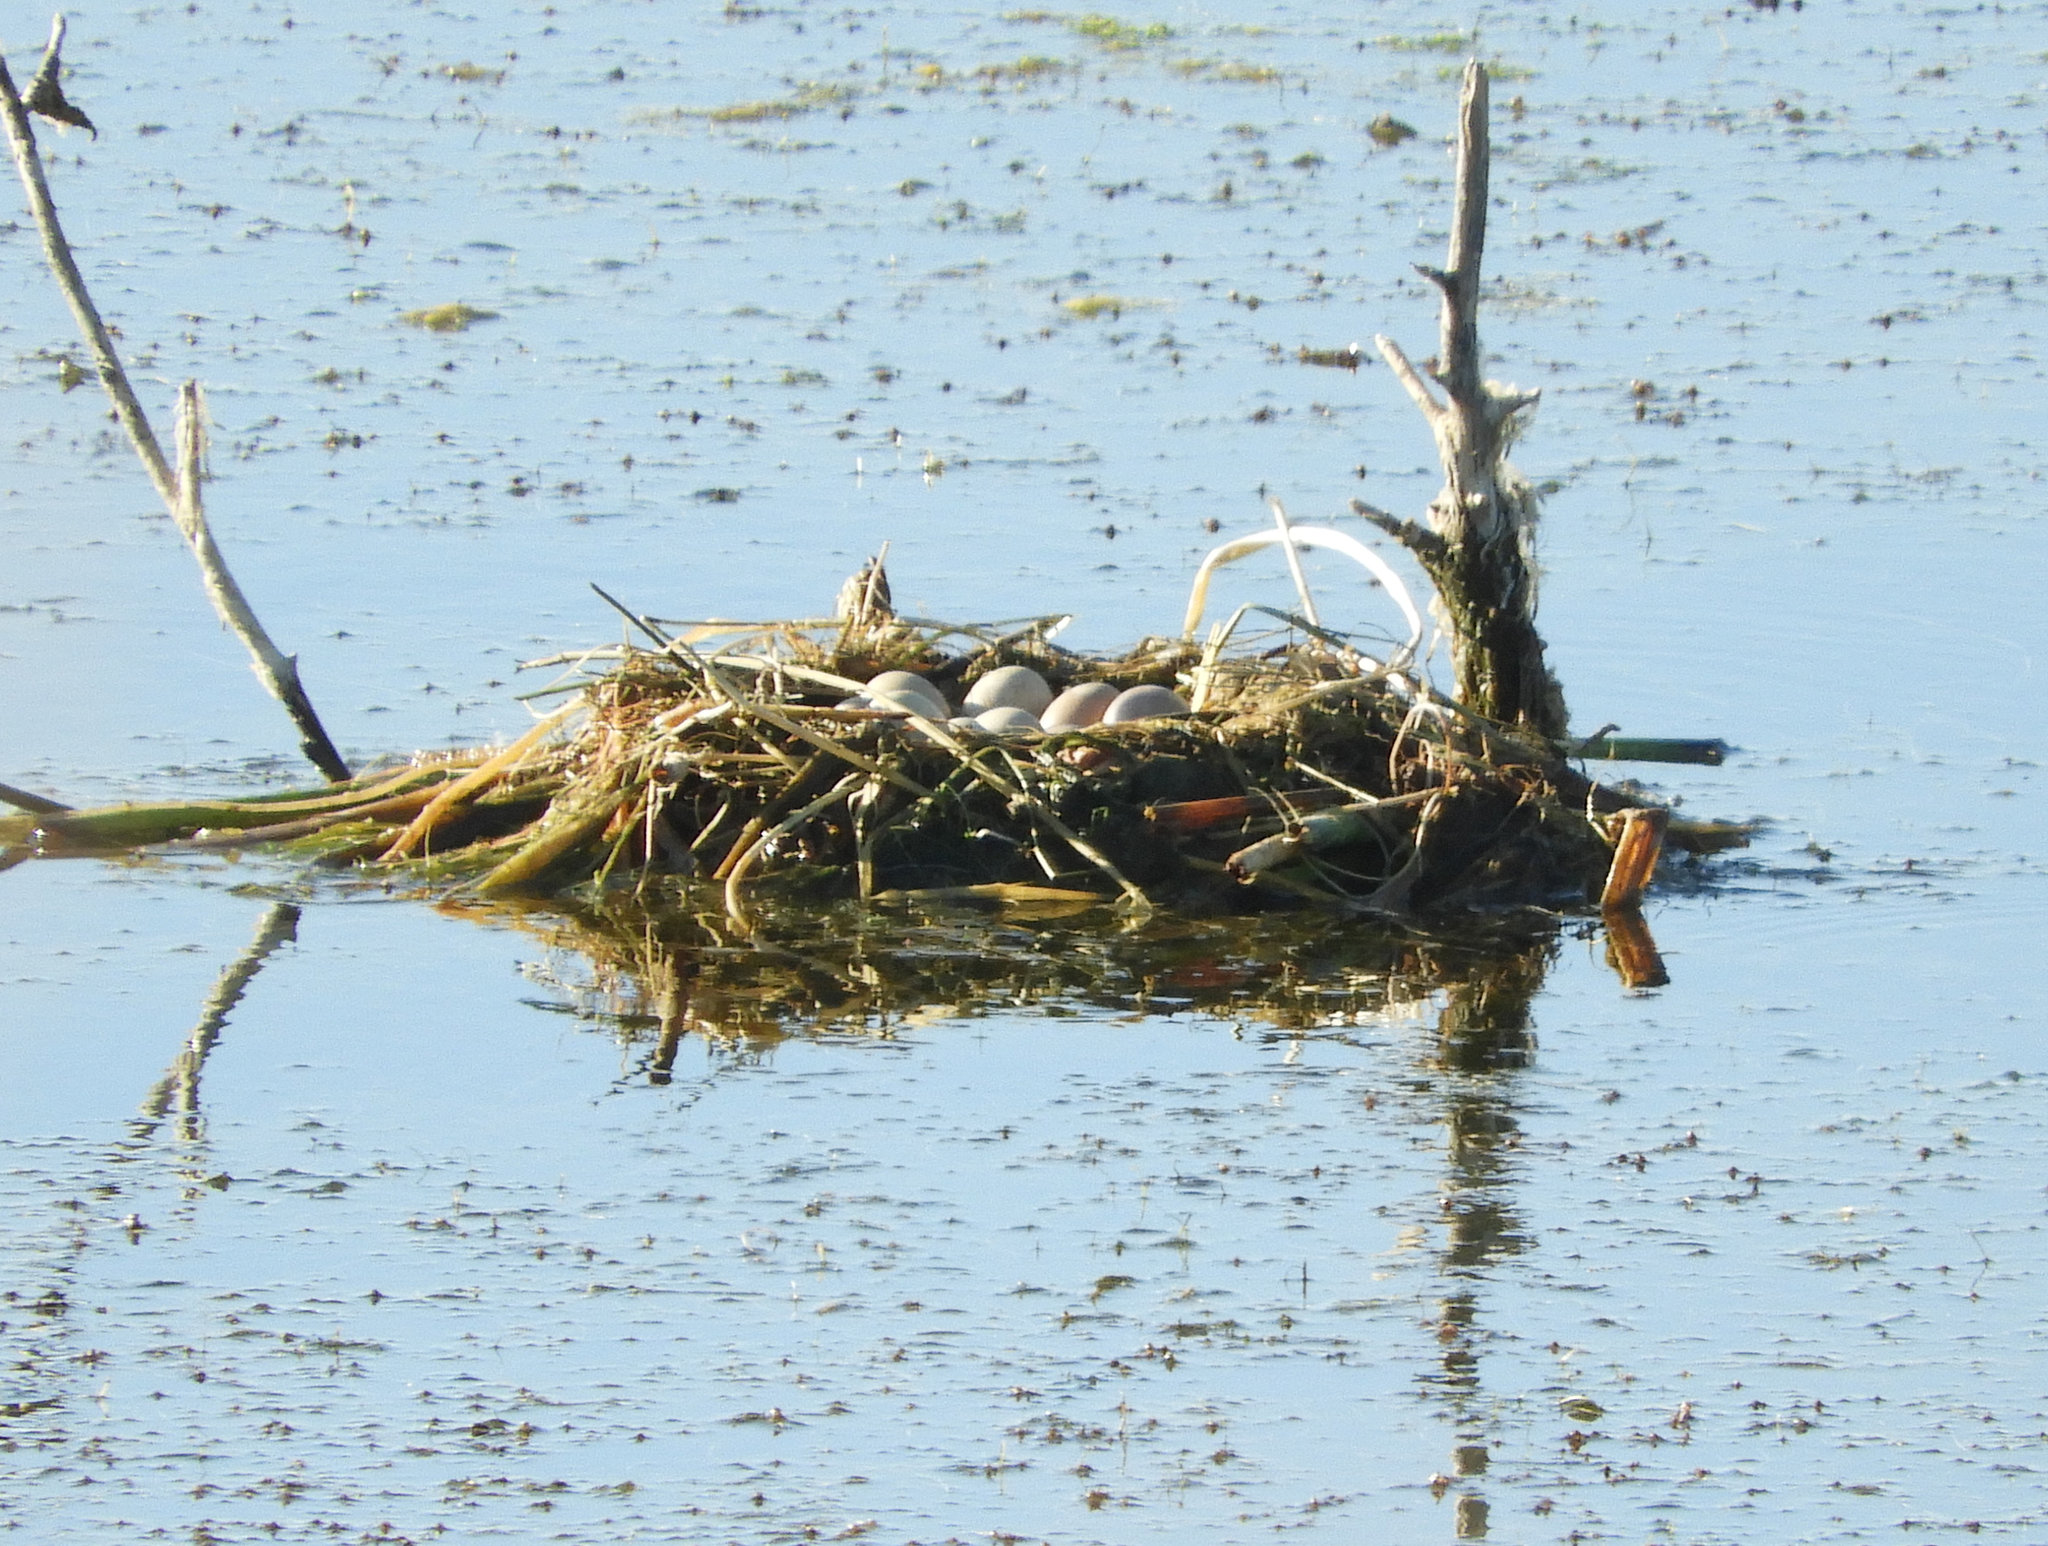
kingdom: Animalia
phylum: Chordata
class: Aves
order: Podicipediformes
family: Podicipedidae
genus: Podilymbus
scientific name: Podilymbus podiceps
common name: Pied-billed grebe
